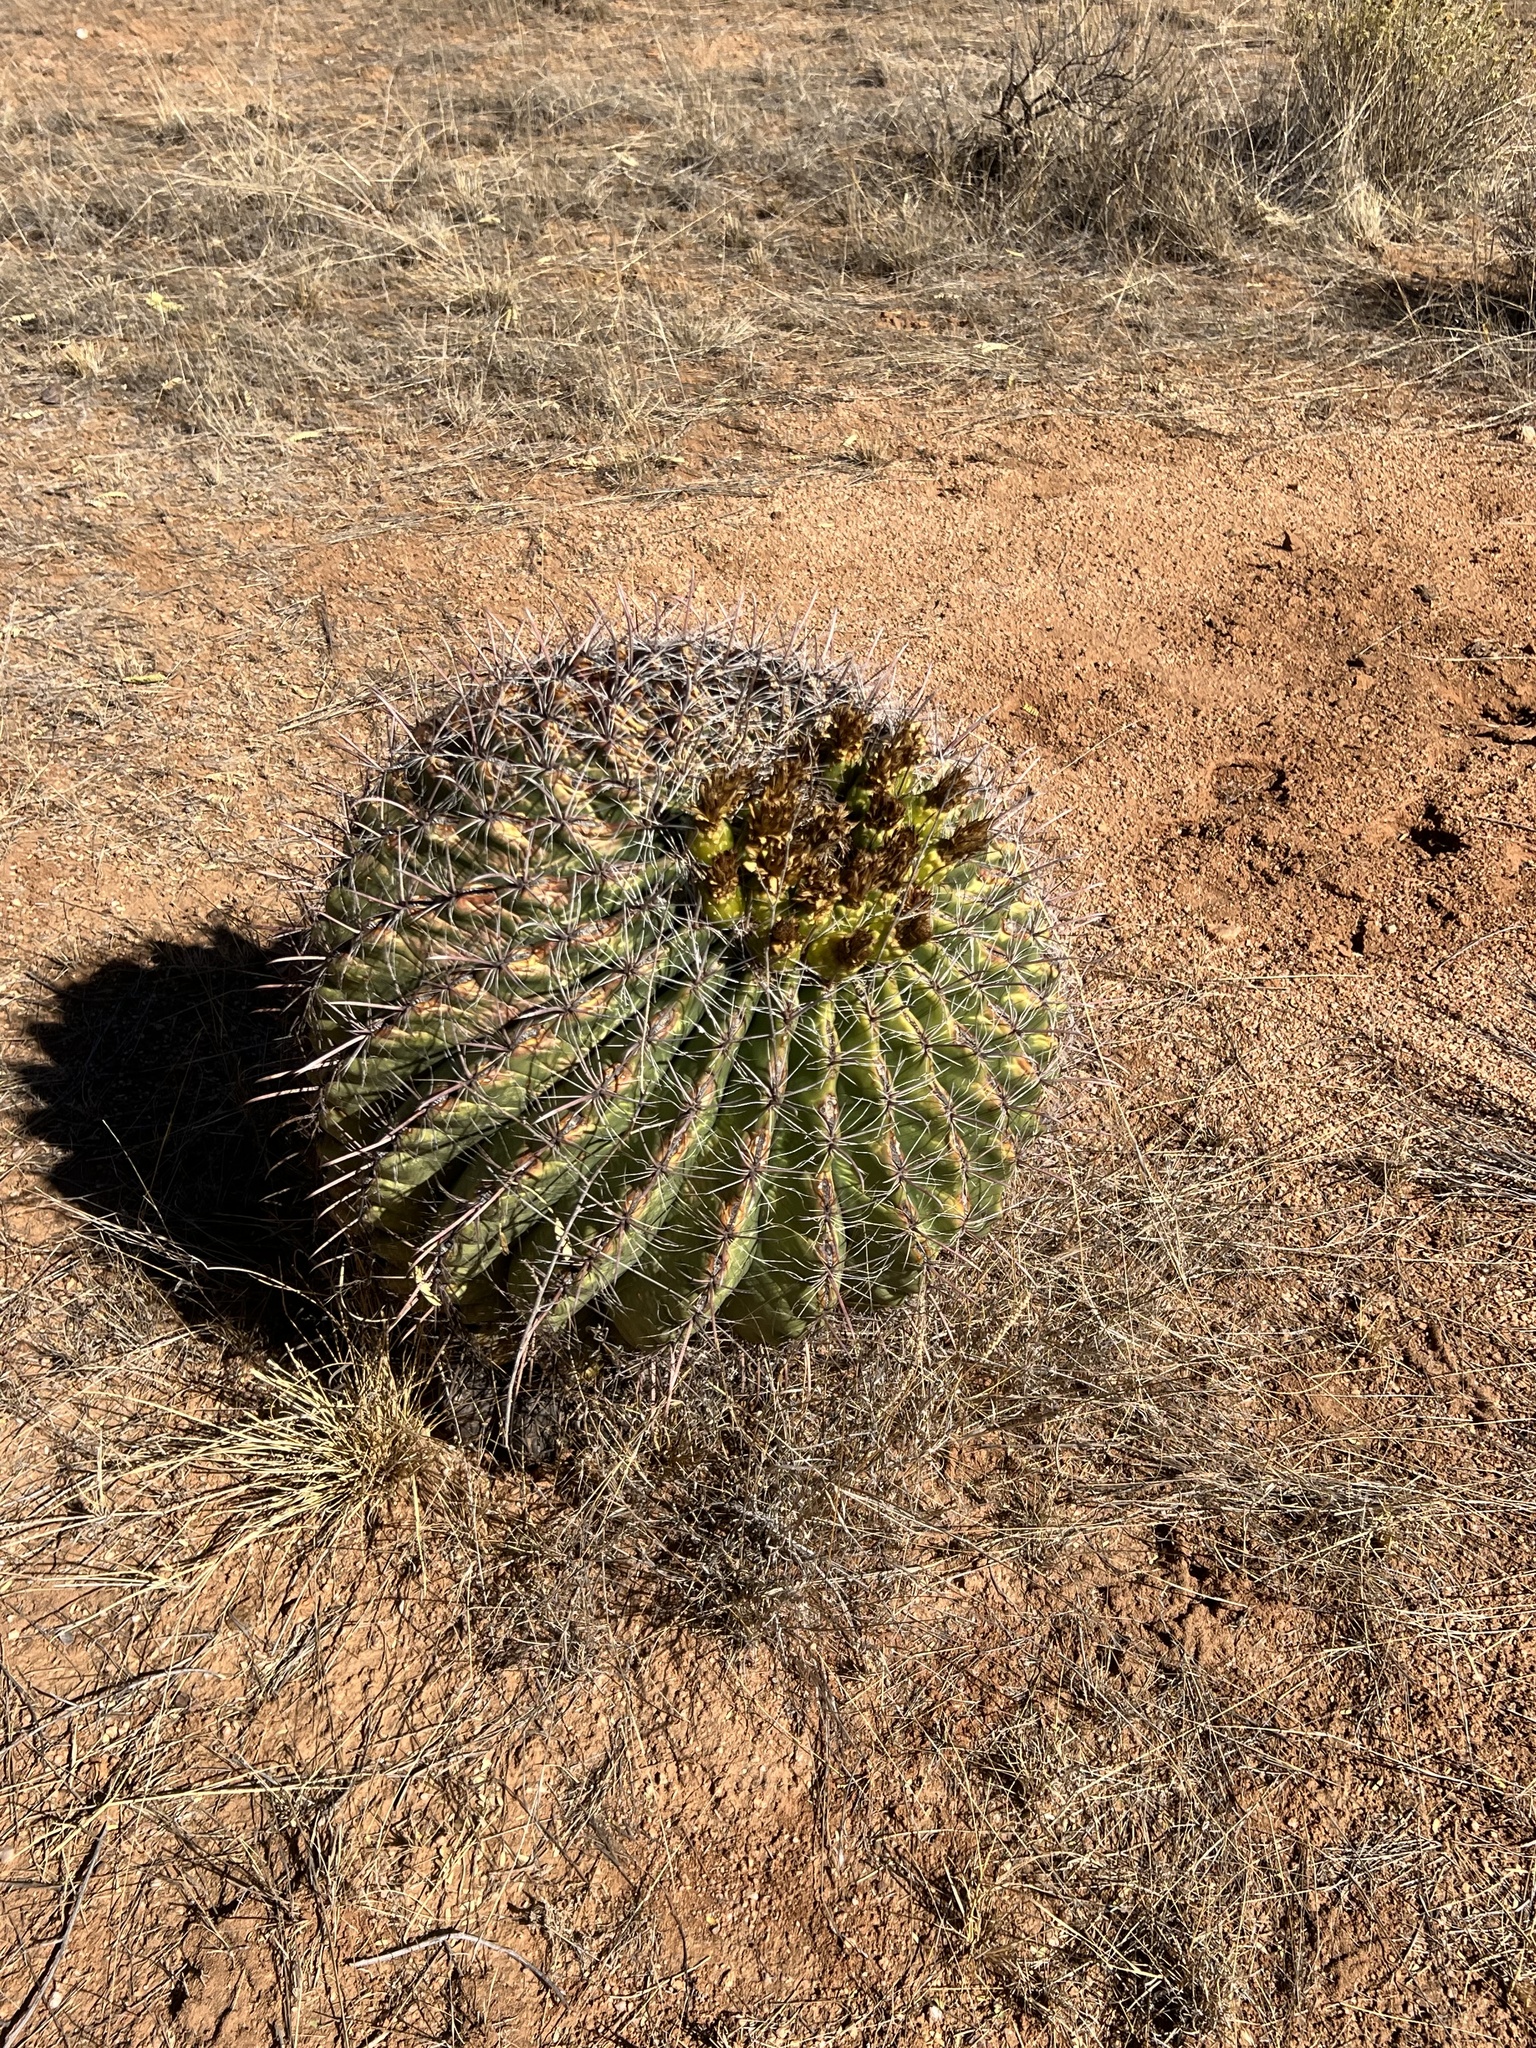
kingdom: Plantae
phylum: Tracheophyta
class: Magnoliopsida
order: Caryophyllales
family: Cactaceae
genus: Ferocactus
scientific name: Ferocactus wislizeni
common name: Candy barrel cactus
